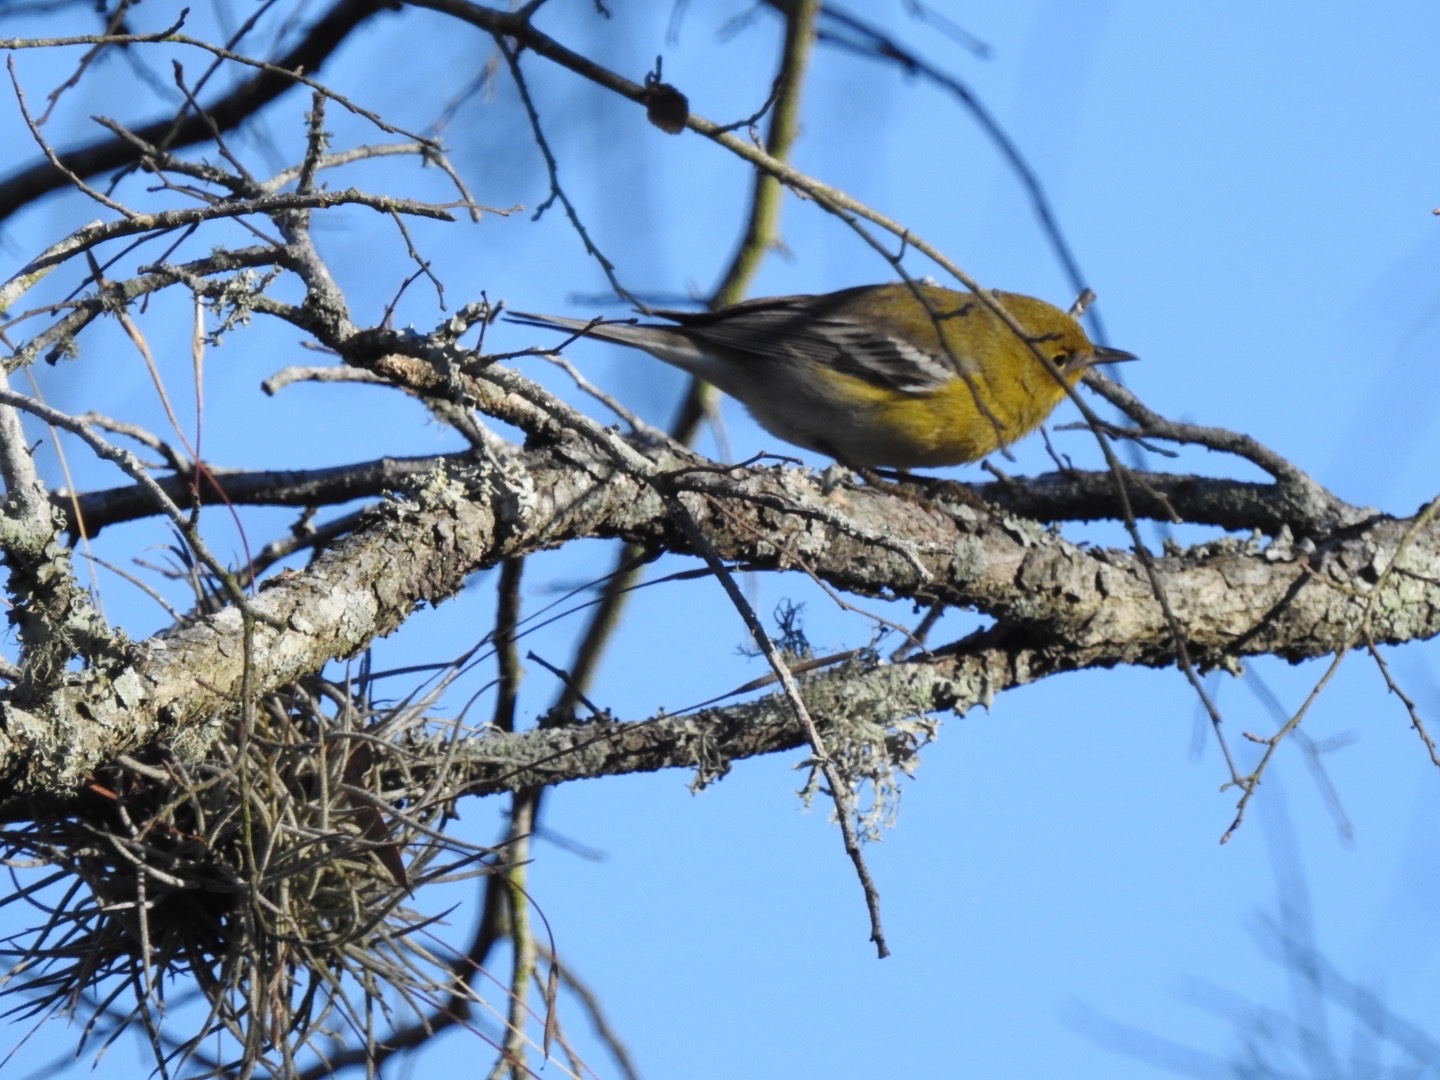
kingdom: Animalia
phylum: Chordata
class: Aves
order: Passeriformes
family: Parulidae
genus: Setophaga
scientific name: Setophaga pinus
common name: Pine warbler
